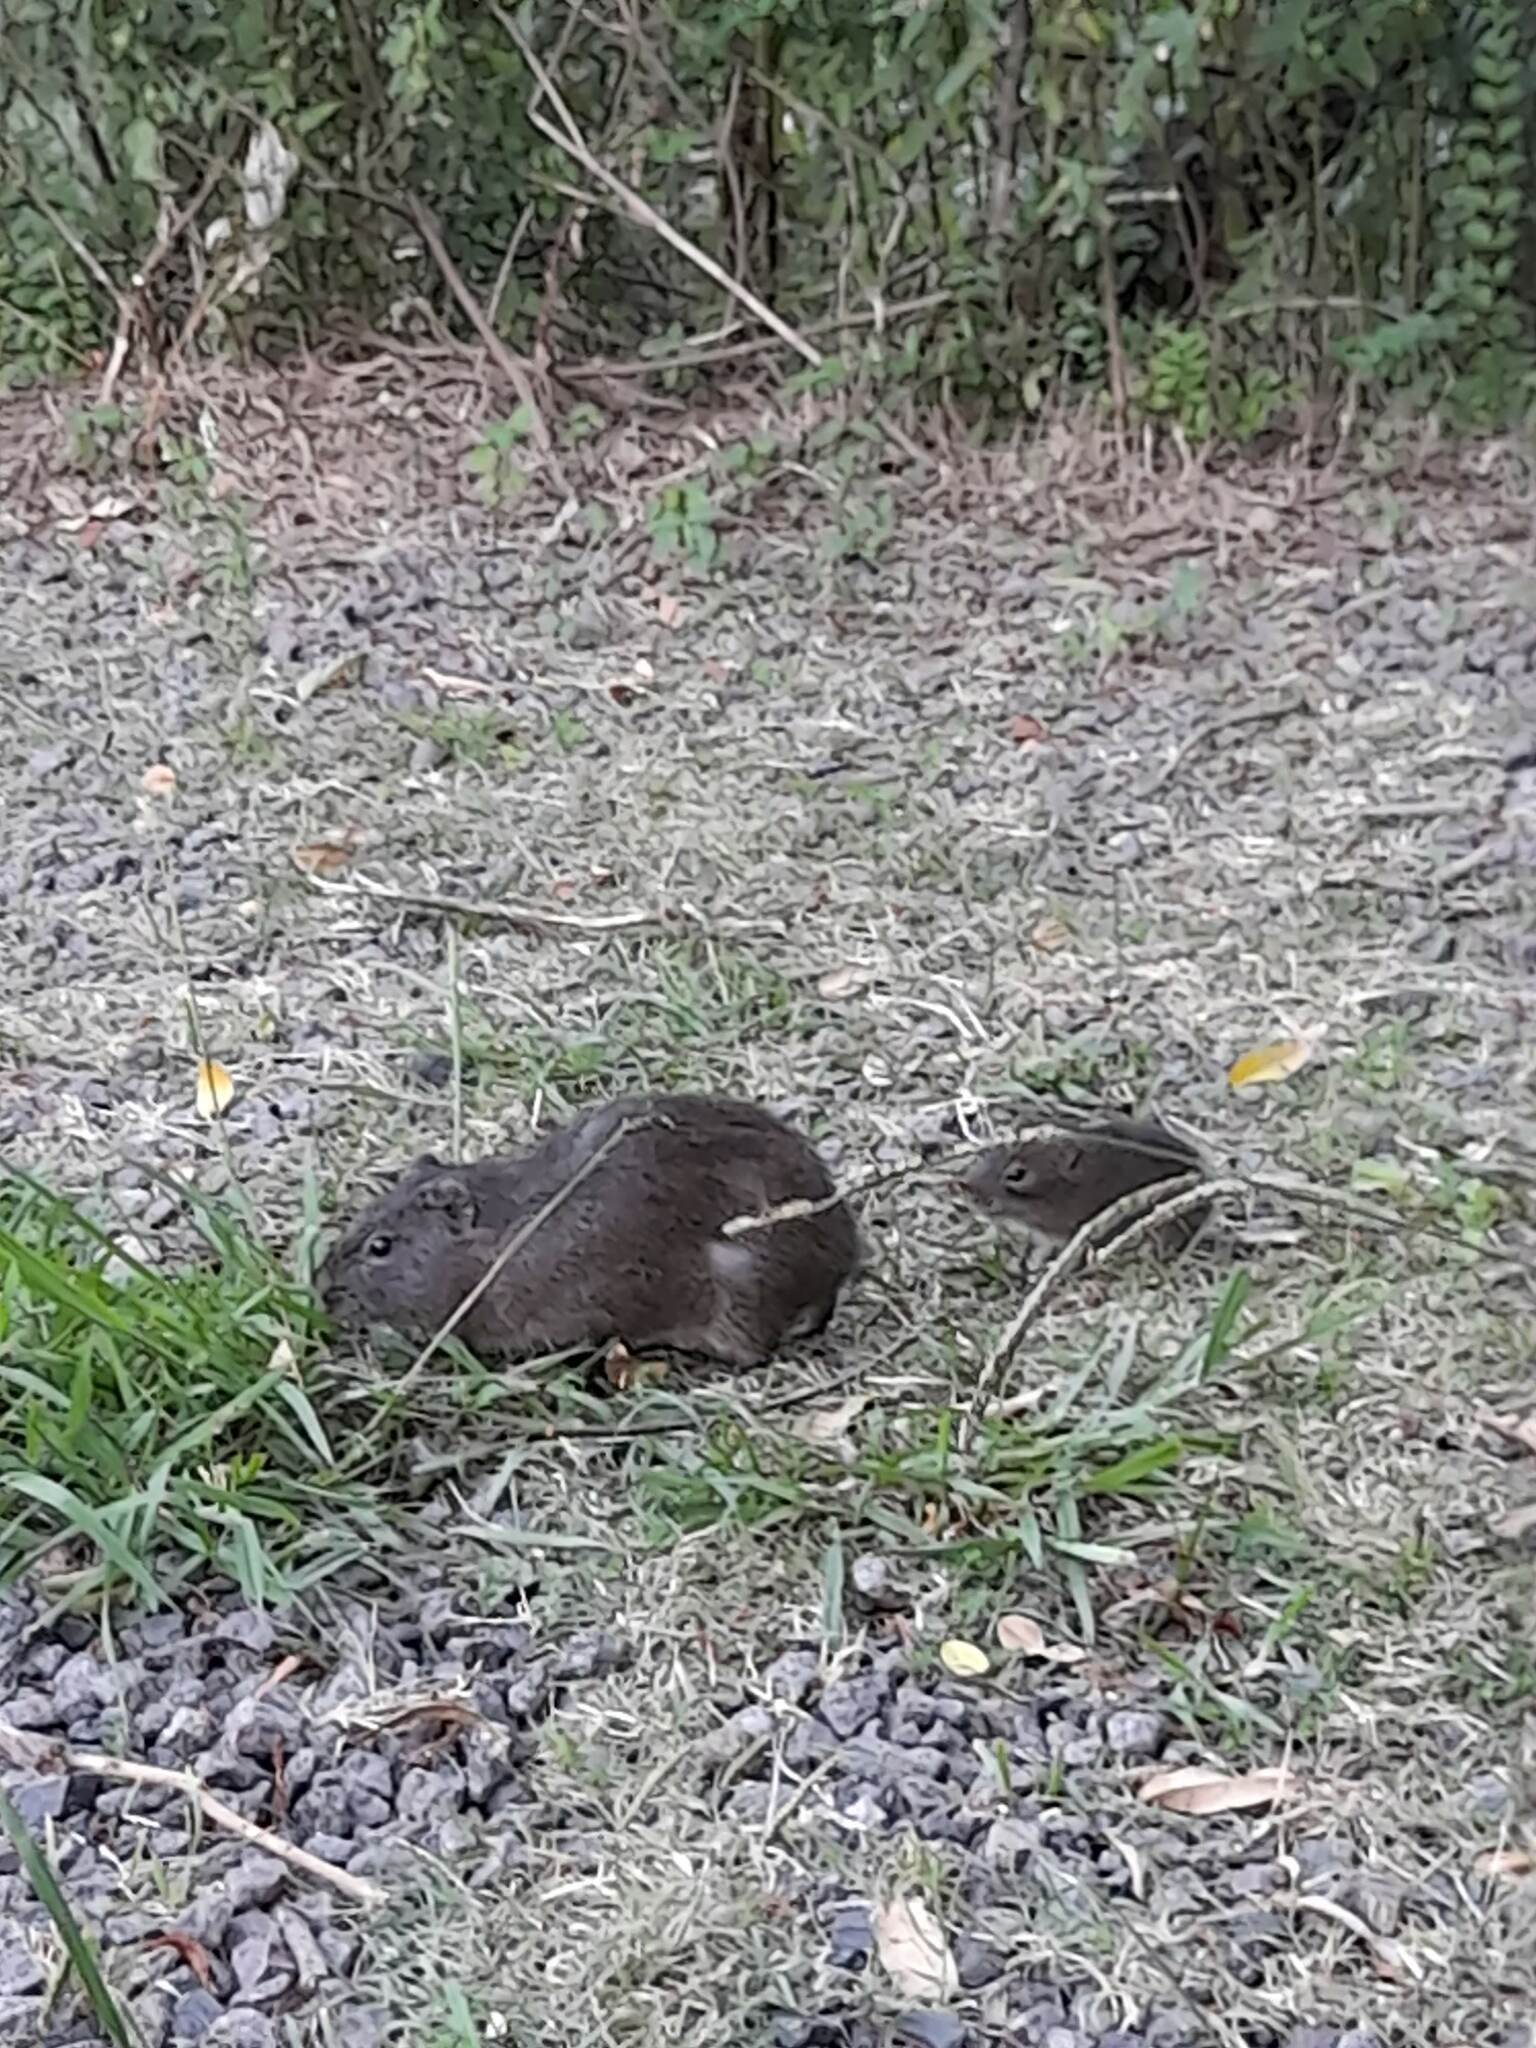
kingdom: Animalia
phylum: Chordata
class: Mammalia
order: Rodentia
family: Caviidae
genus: Cavia
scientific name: Cavia aperea
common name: Brazilian guinea pig
